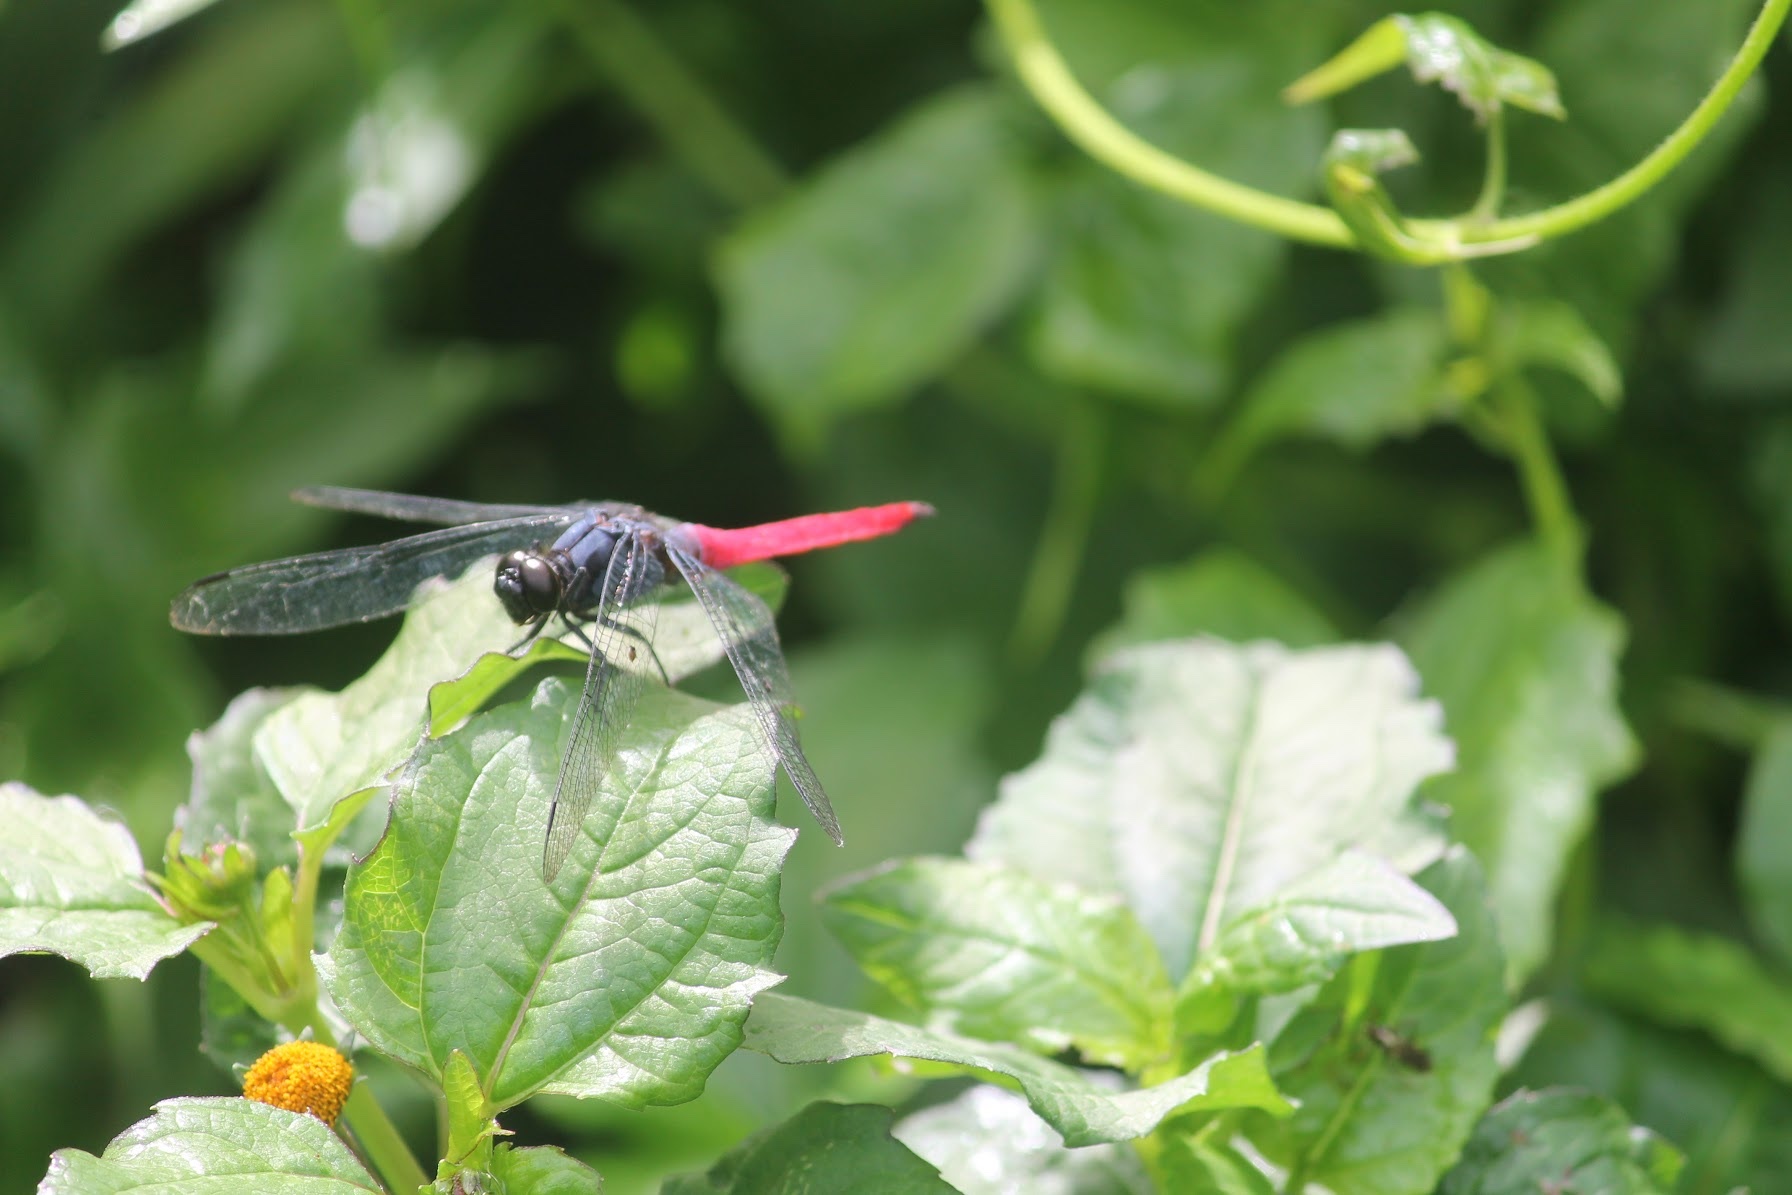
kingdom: Animalia
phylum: Arthropoda
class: Insecta
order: Odonata
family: Libellulidae
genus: Orthetrum
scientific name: Orthetrum pruinosum
